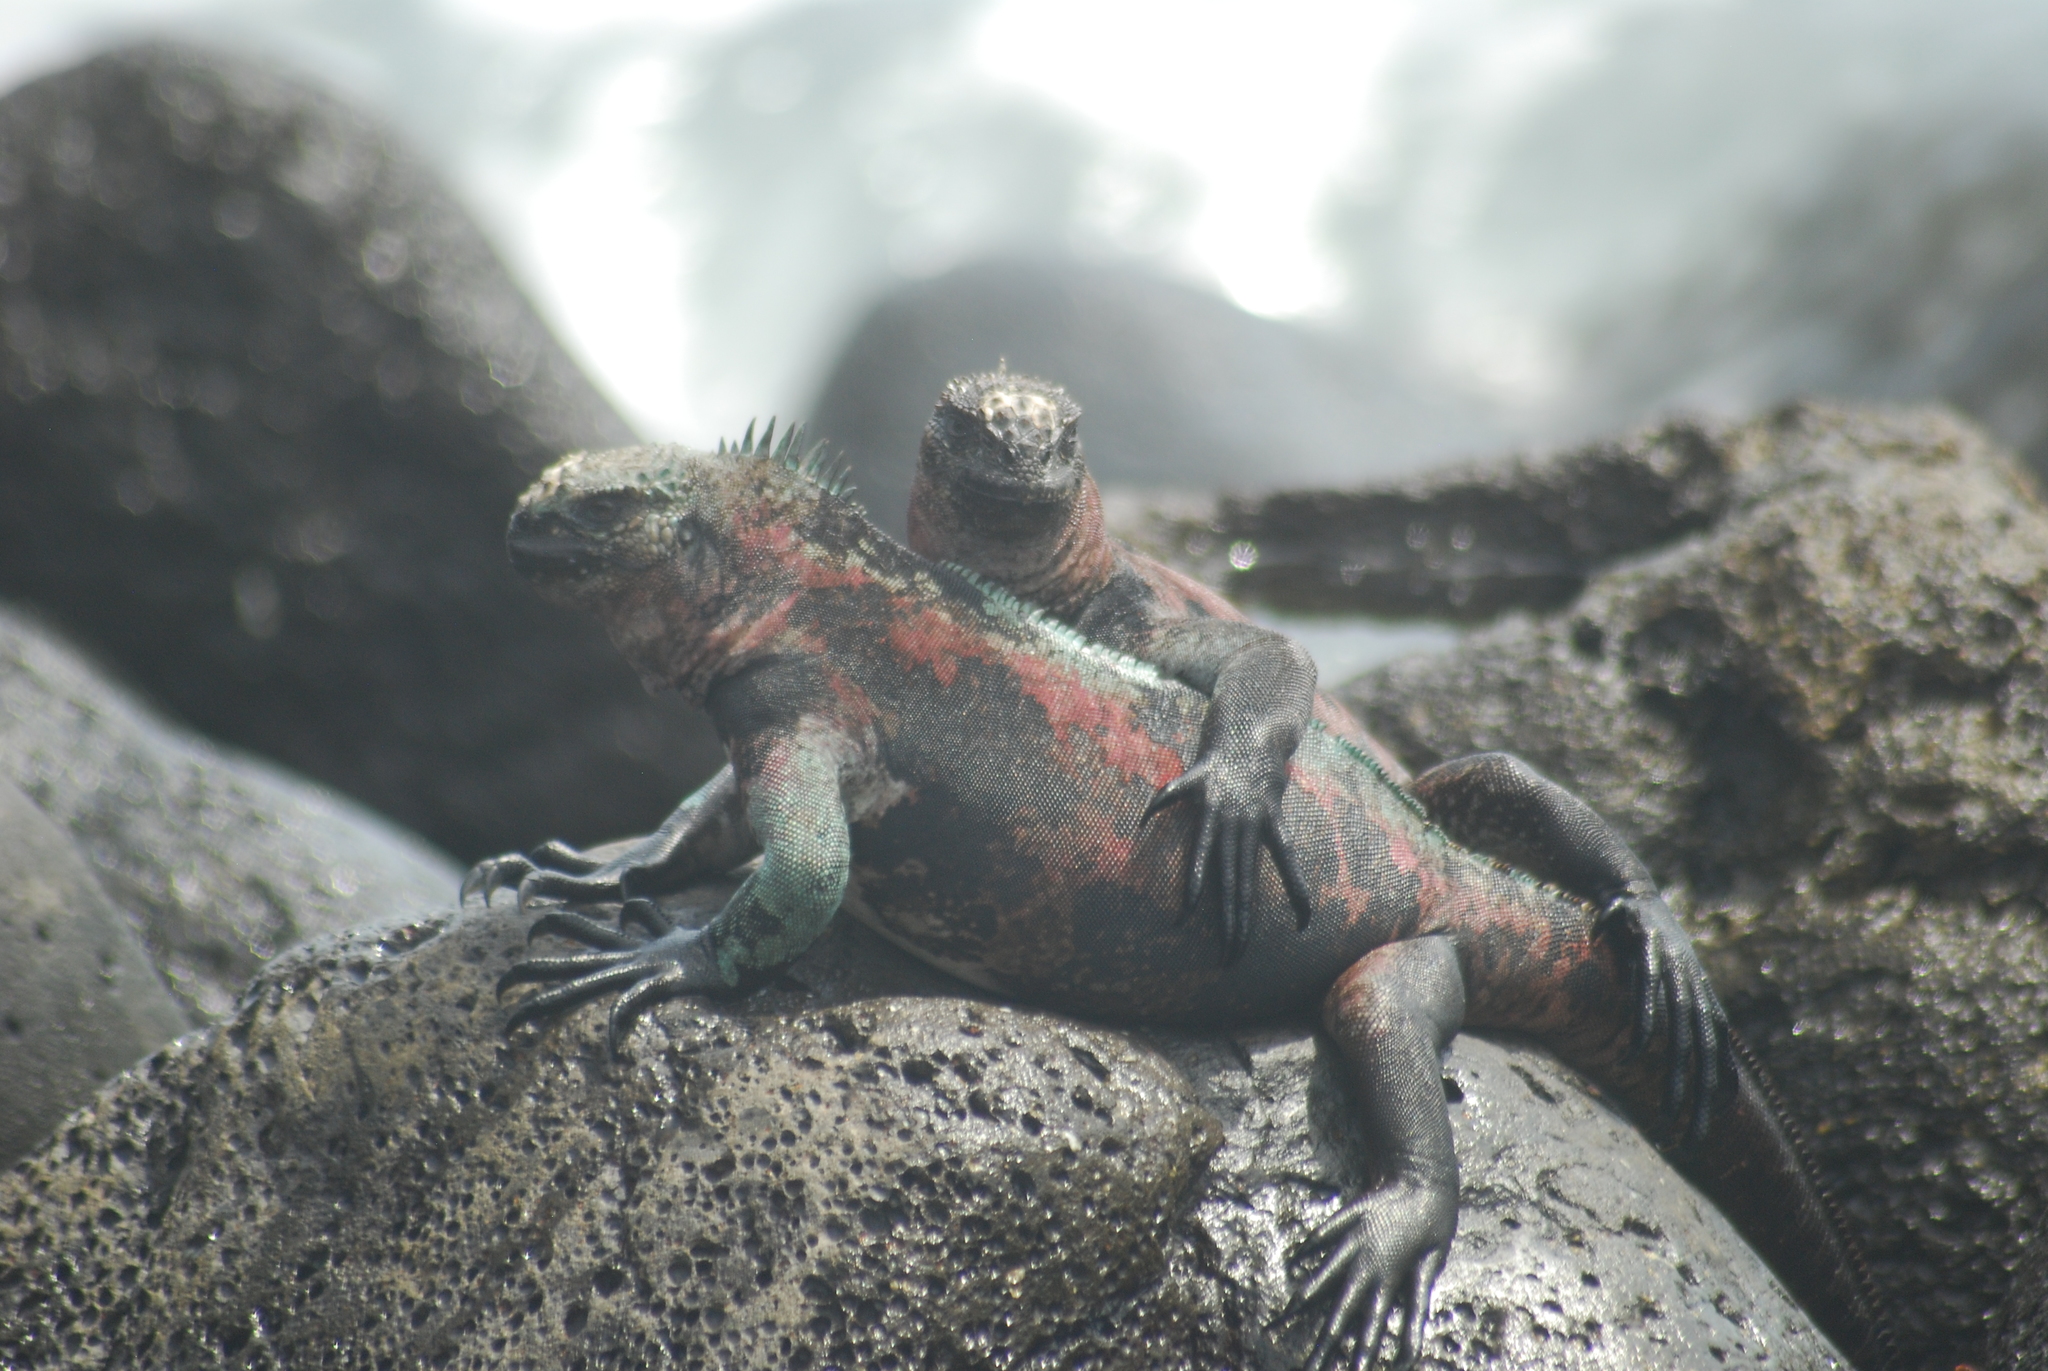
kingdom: Animalia
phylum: Chordata
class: Squamata
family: Iguanidae
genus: Amblyrhynchus
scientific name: Amblyrhynchus cristatus
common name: Marine iguana
